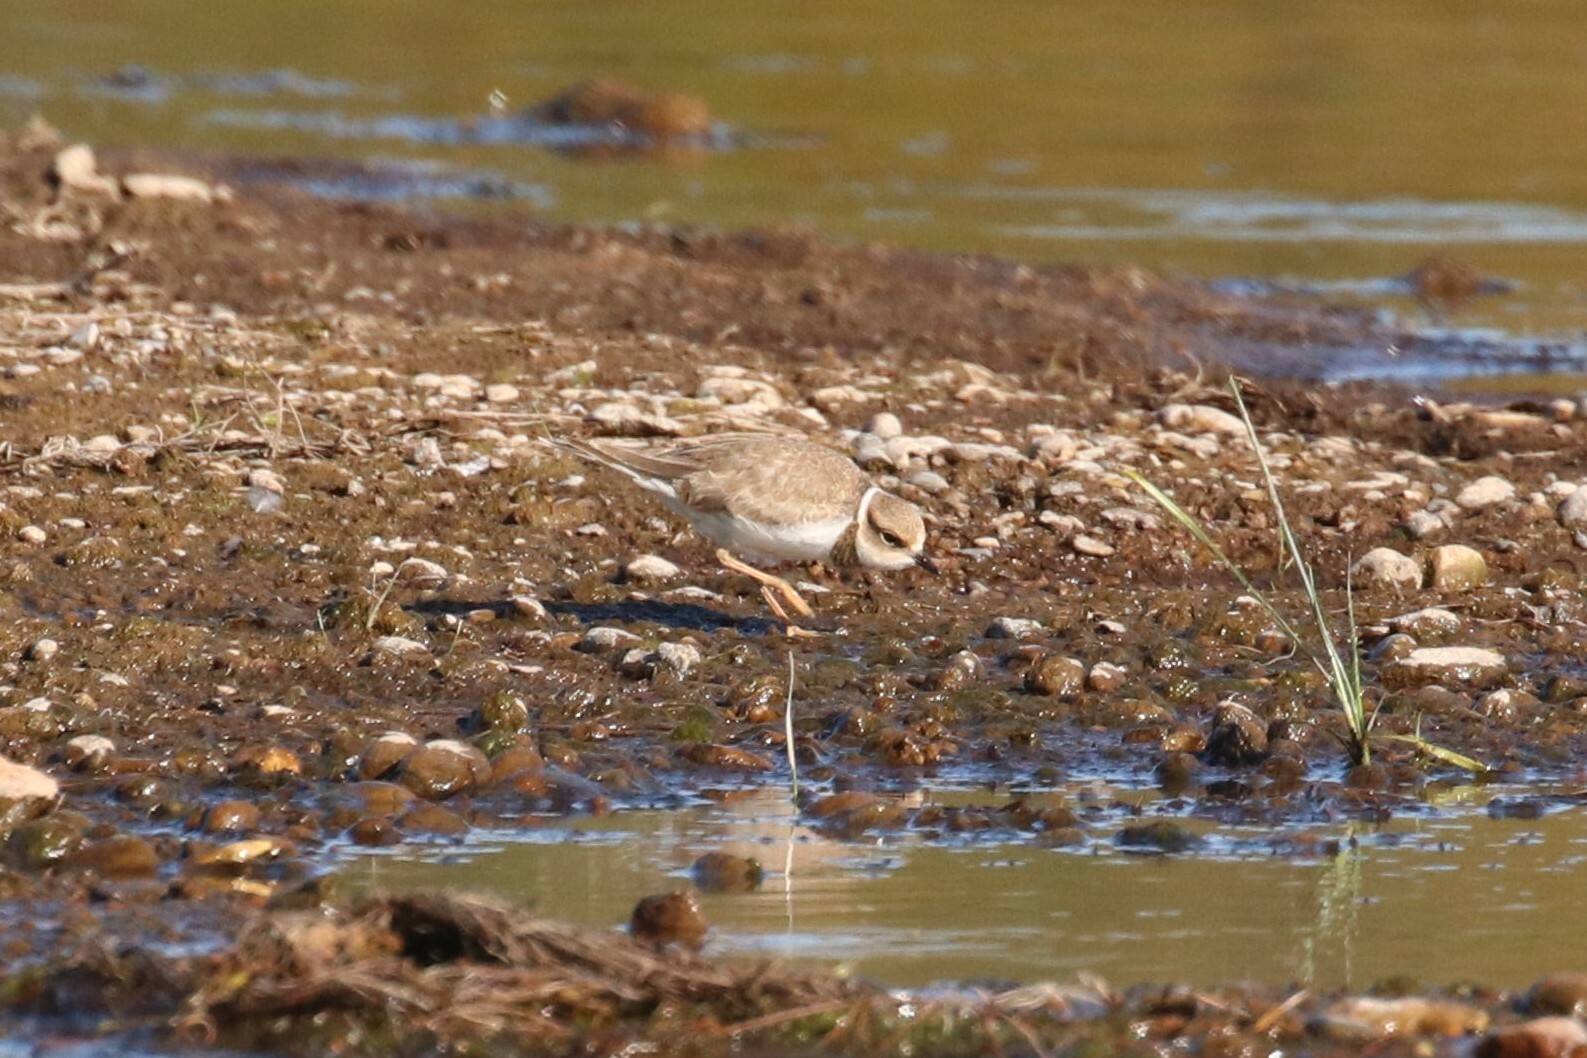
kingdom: Animalia
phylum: Chordata
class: Aves
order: Charadriiformes
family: Charadriidae
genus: Charadrius
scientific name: Charadrius dubius
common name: Little ringed plover
